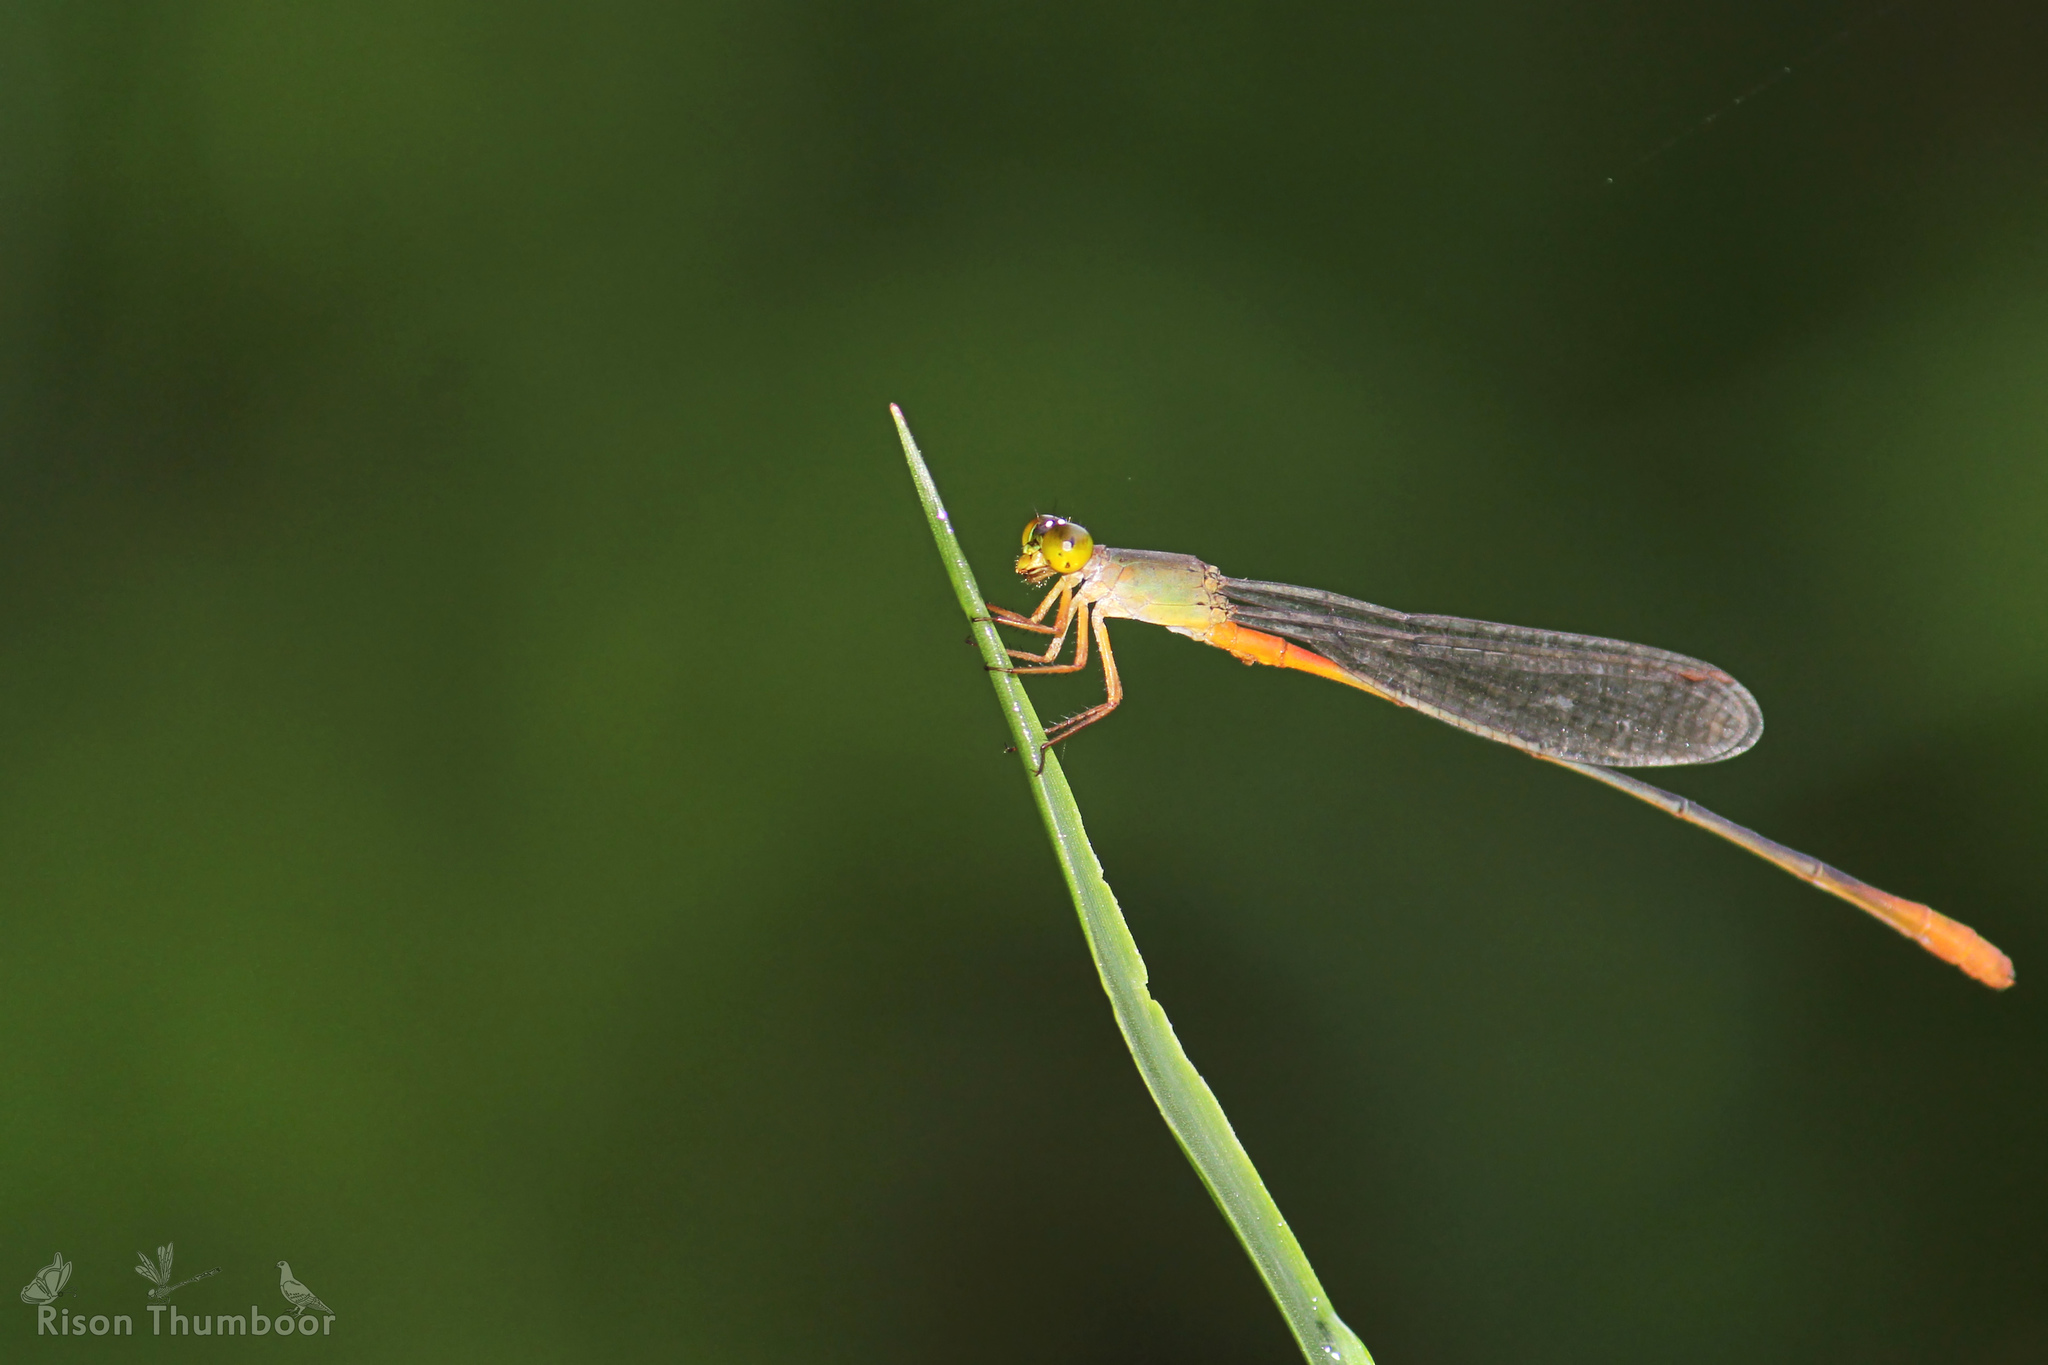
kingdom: Animalia
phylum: Arthropoda
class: Insecta
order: Odonata
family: Coenagrionidae
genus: Ceriagrion
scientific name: Ceriagrion cerinorubellum
